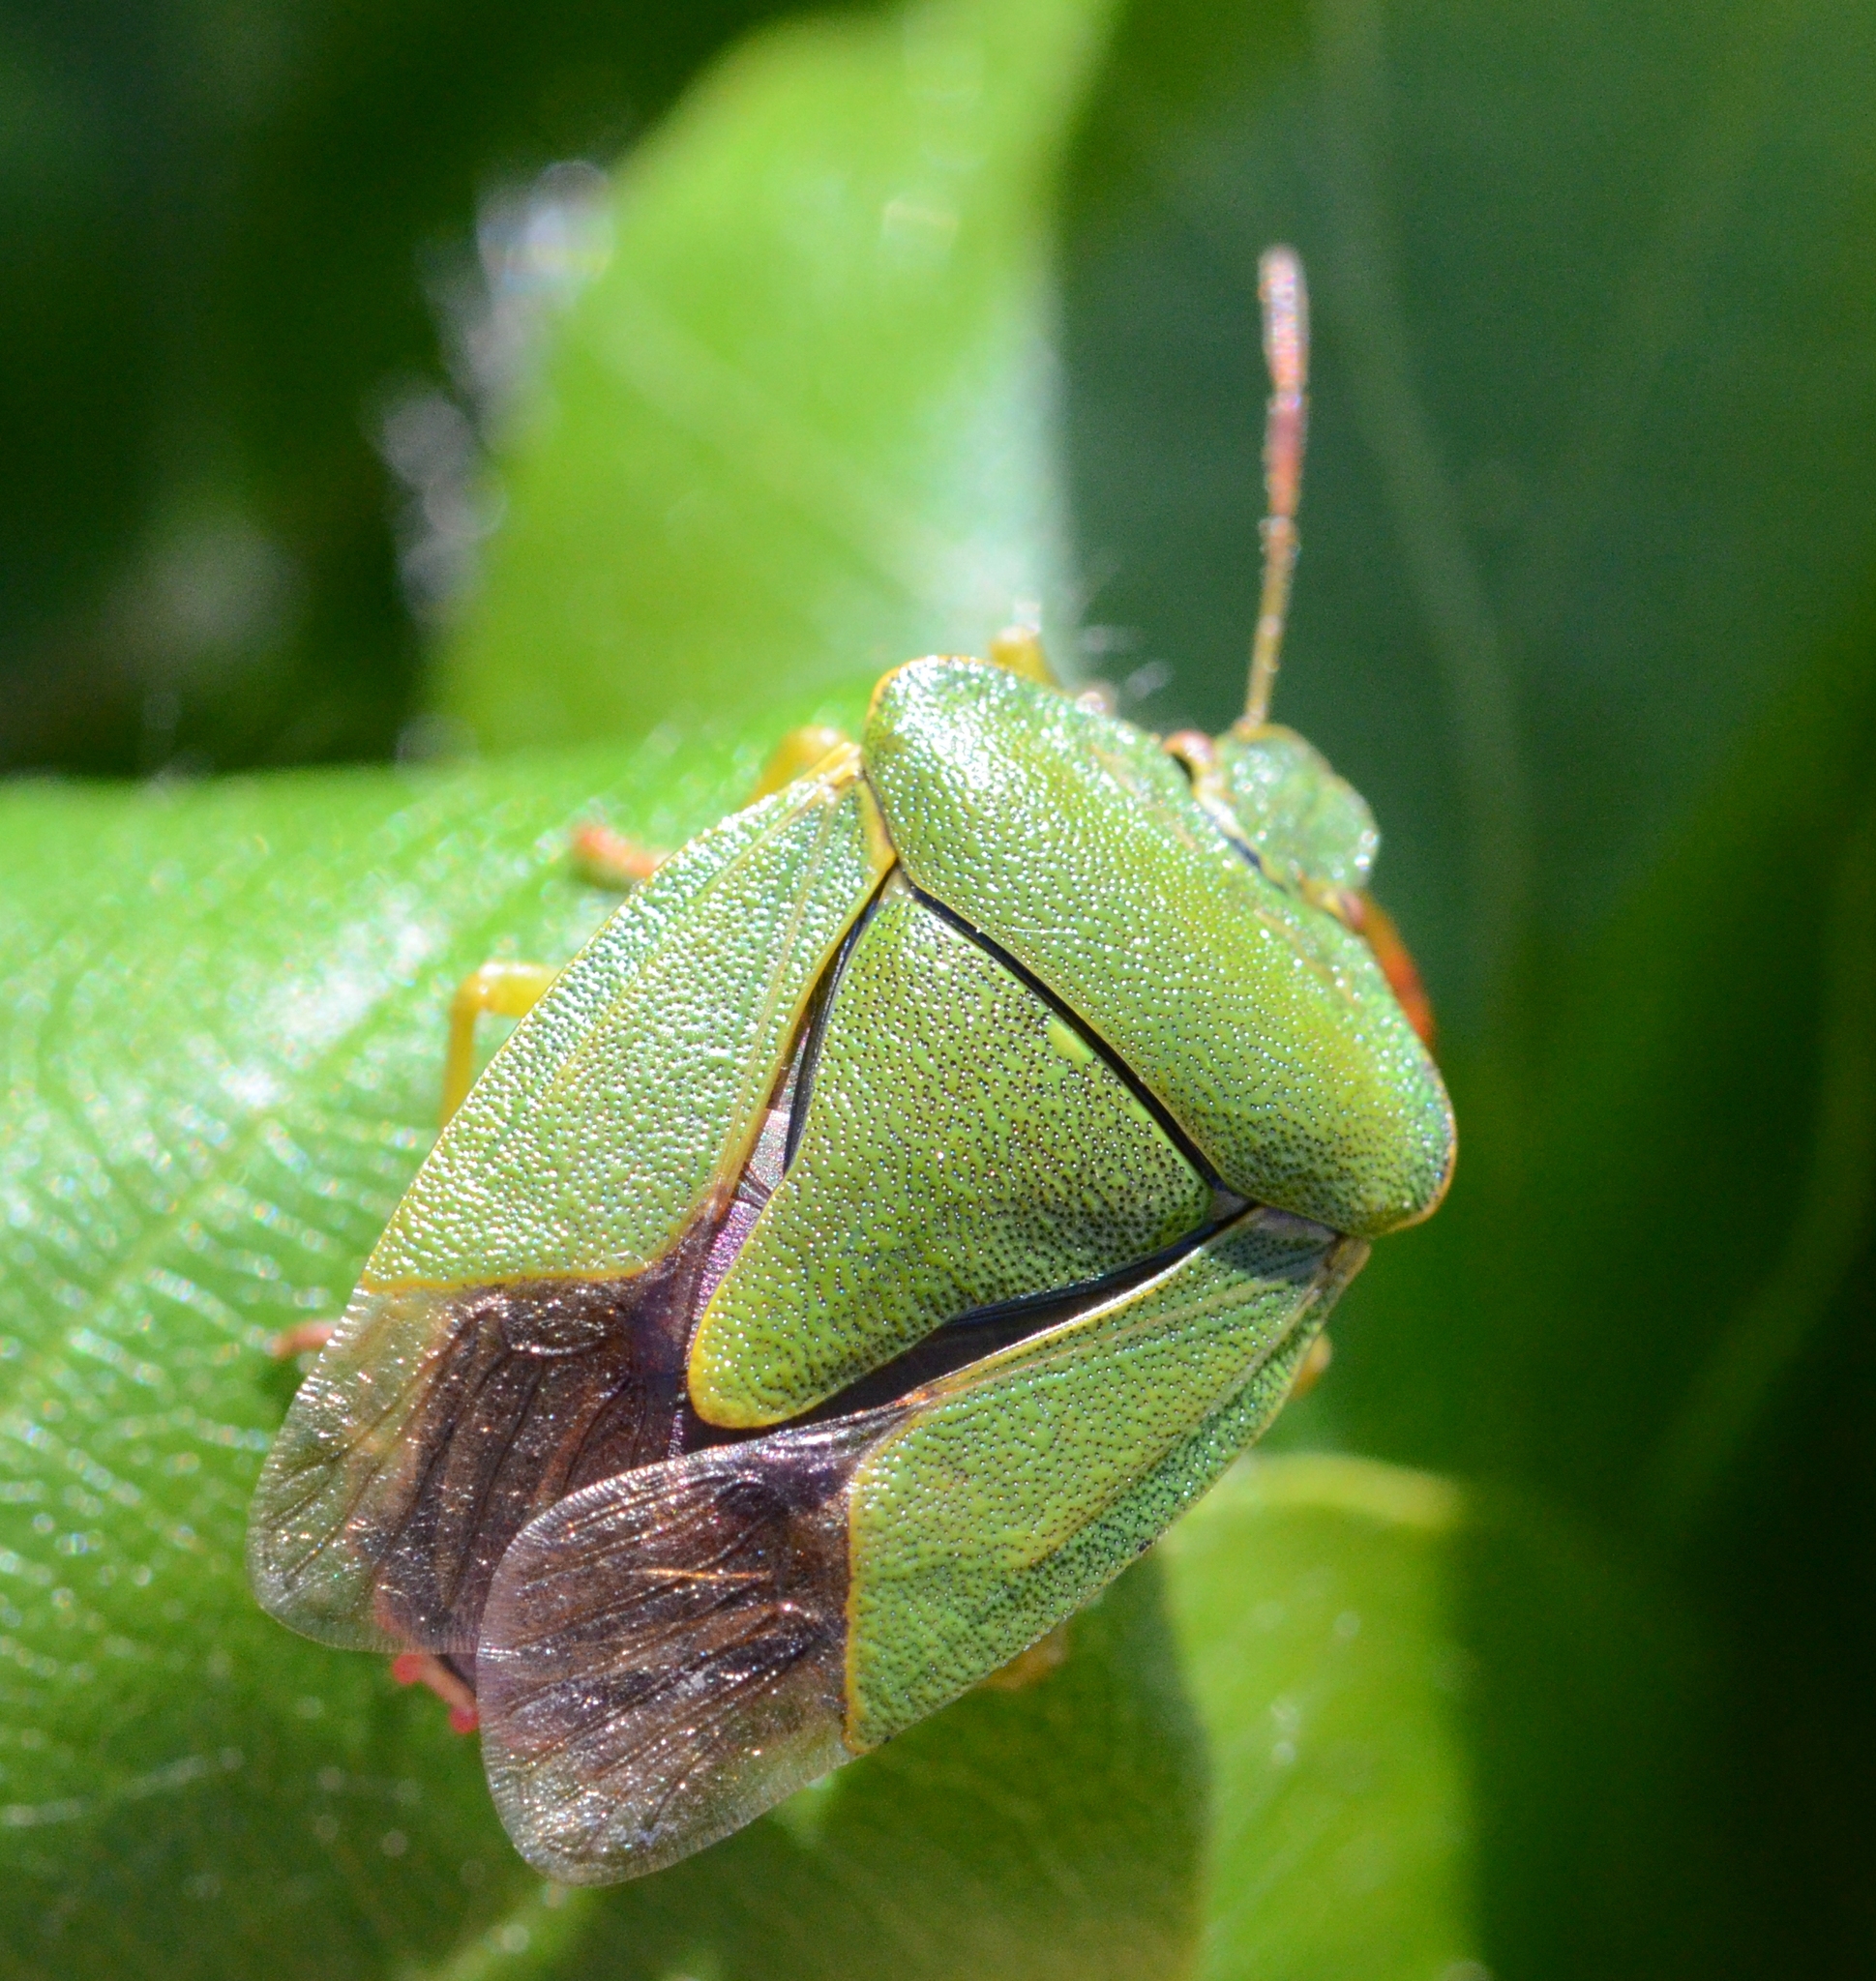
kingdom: Animalia
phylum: Arthropoda
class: Insecta
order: Hemiptera
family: Pentatomidae
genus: Palomena
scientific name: Palomena prasina
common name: Green shieldbug
